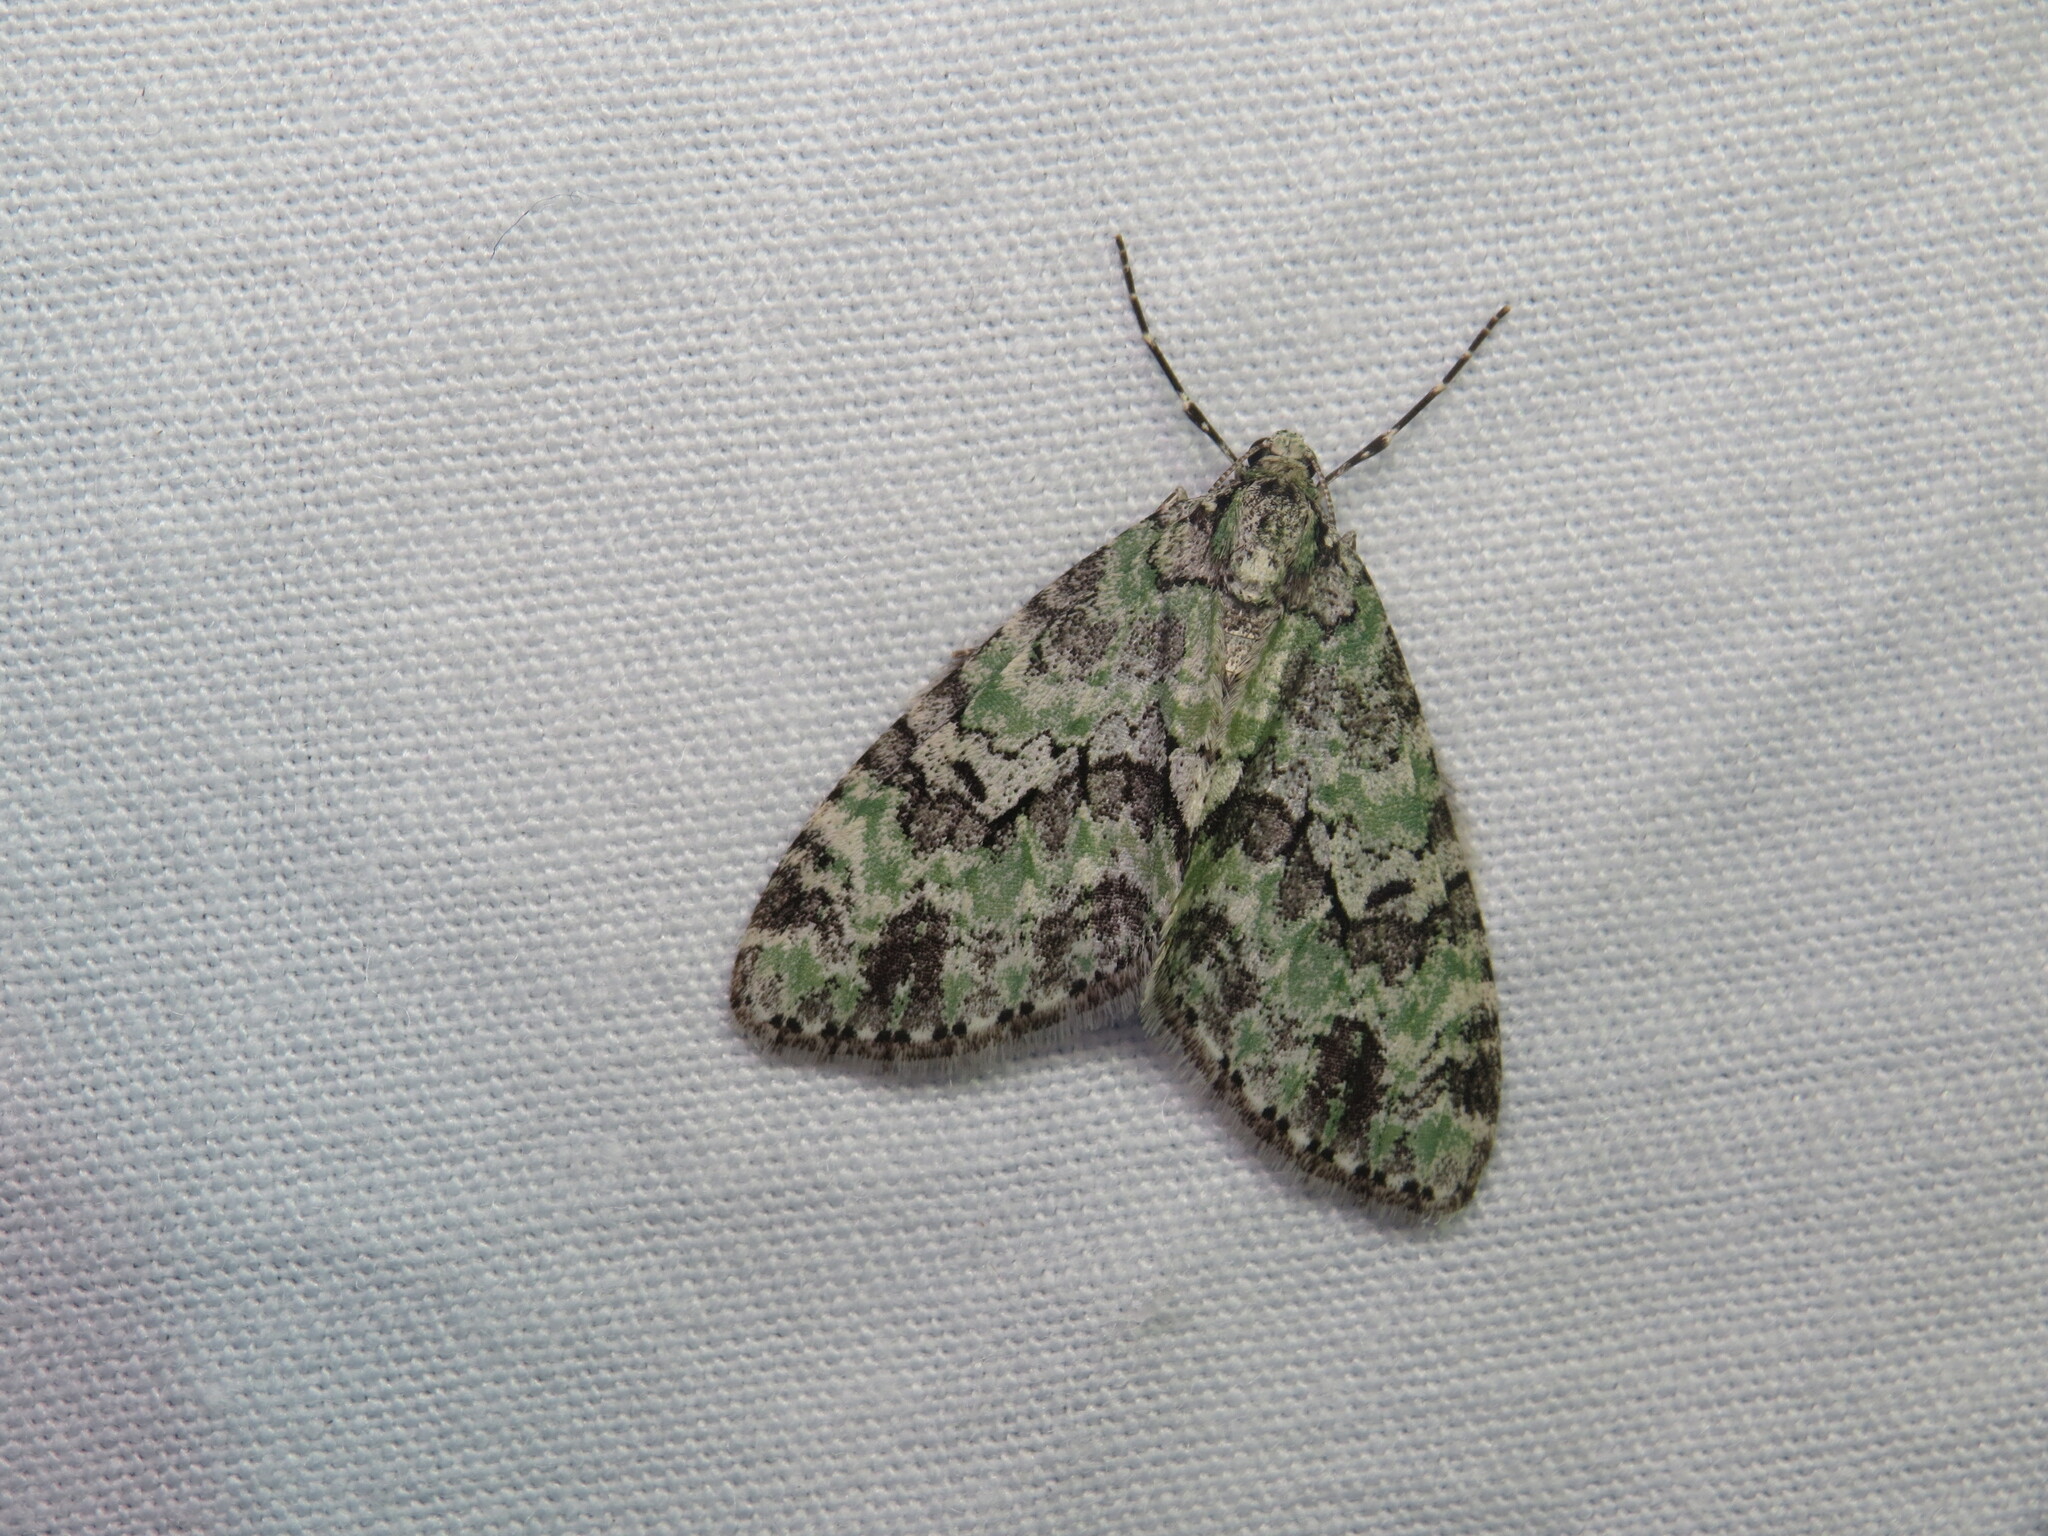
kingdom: Animalia
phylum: Arthropoda
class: Insecta
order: Lepidoptera
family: Geometridae
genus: Cladara
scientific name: Cladara limitaria
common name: Mottled gray carpet
